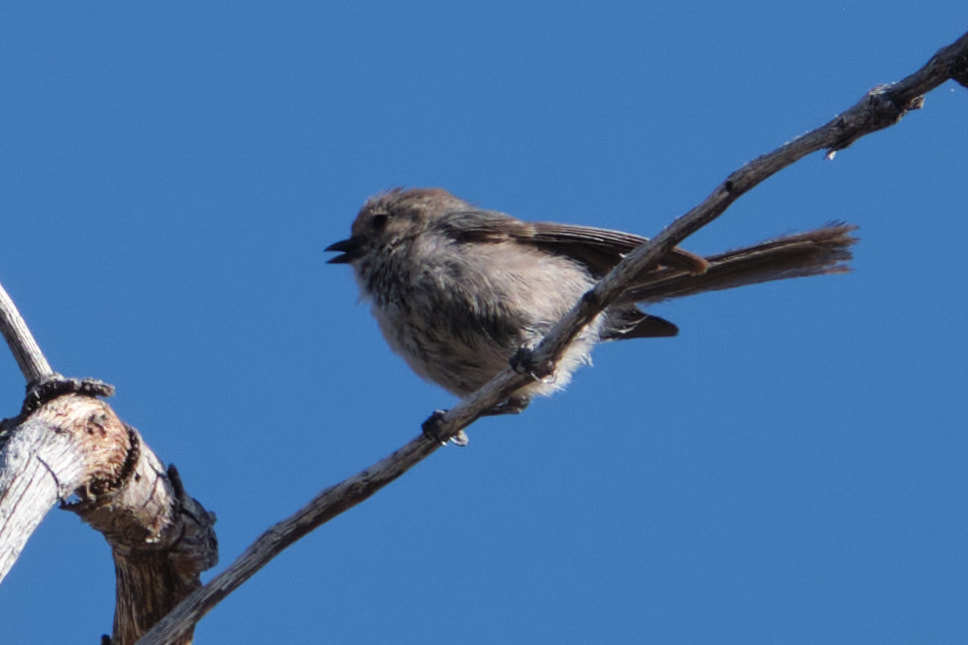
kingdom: Animalia
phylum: Chordata
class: Aves
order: Passeriformes
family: Aegithalidae
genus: Psaltriparus
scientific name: Psaltriparus minimus
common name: American bushtit
